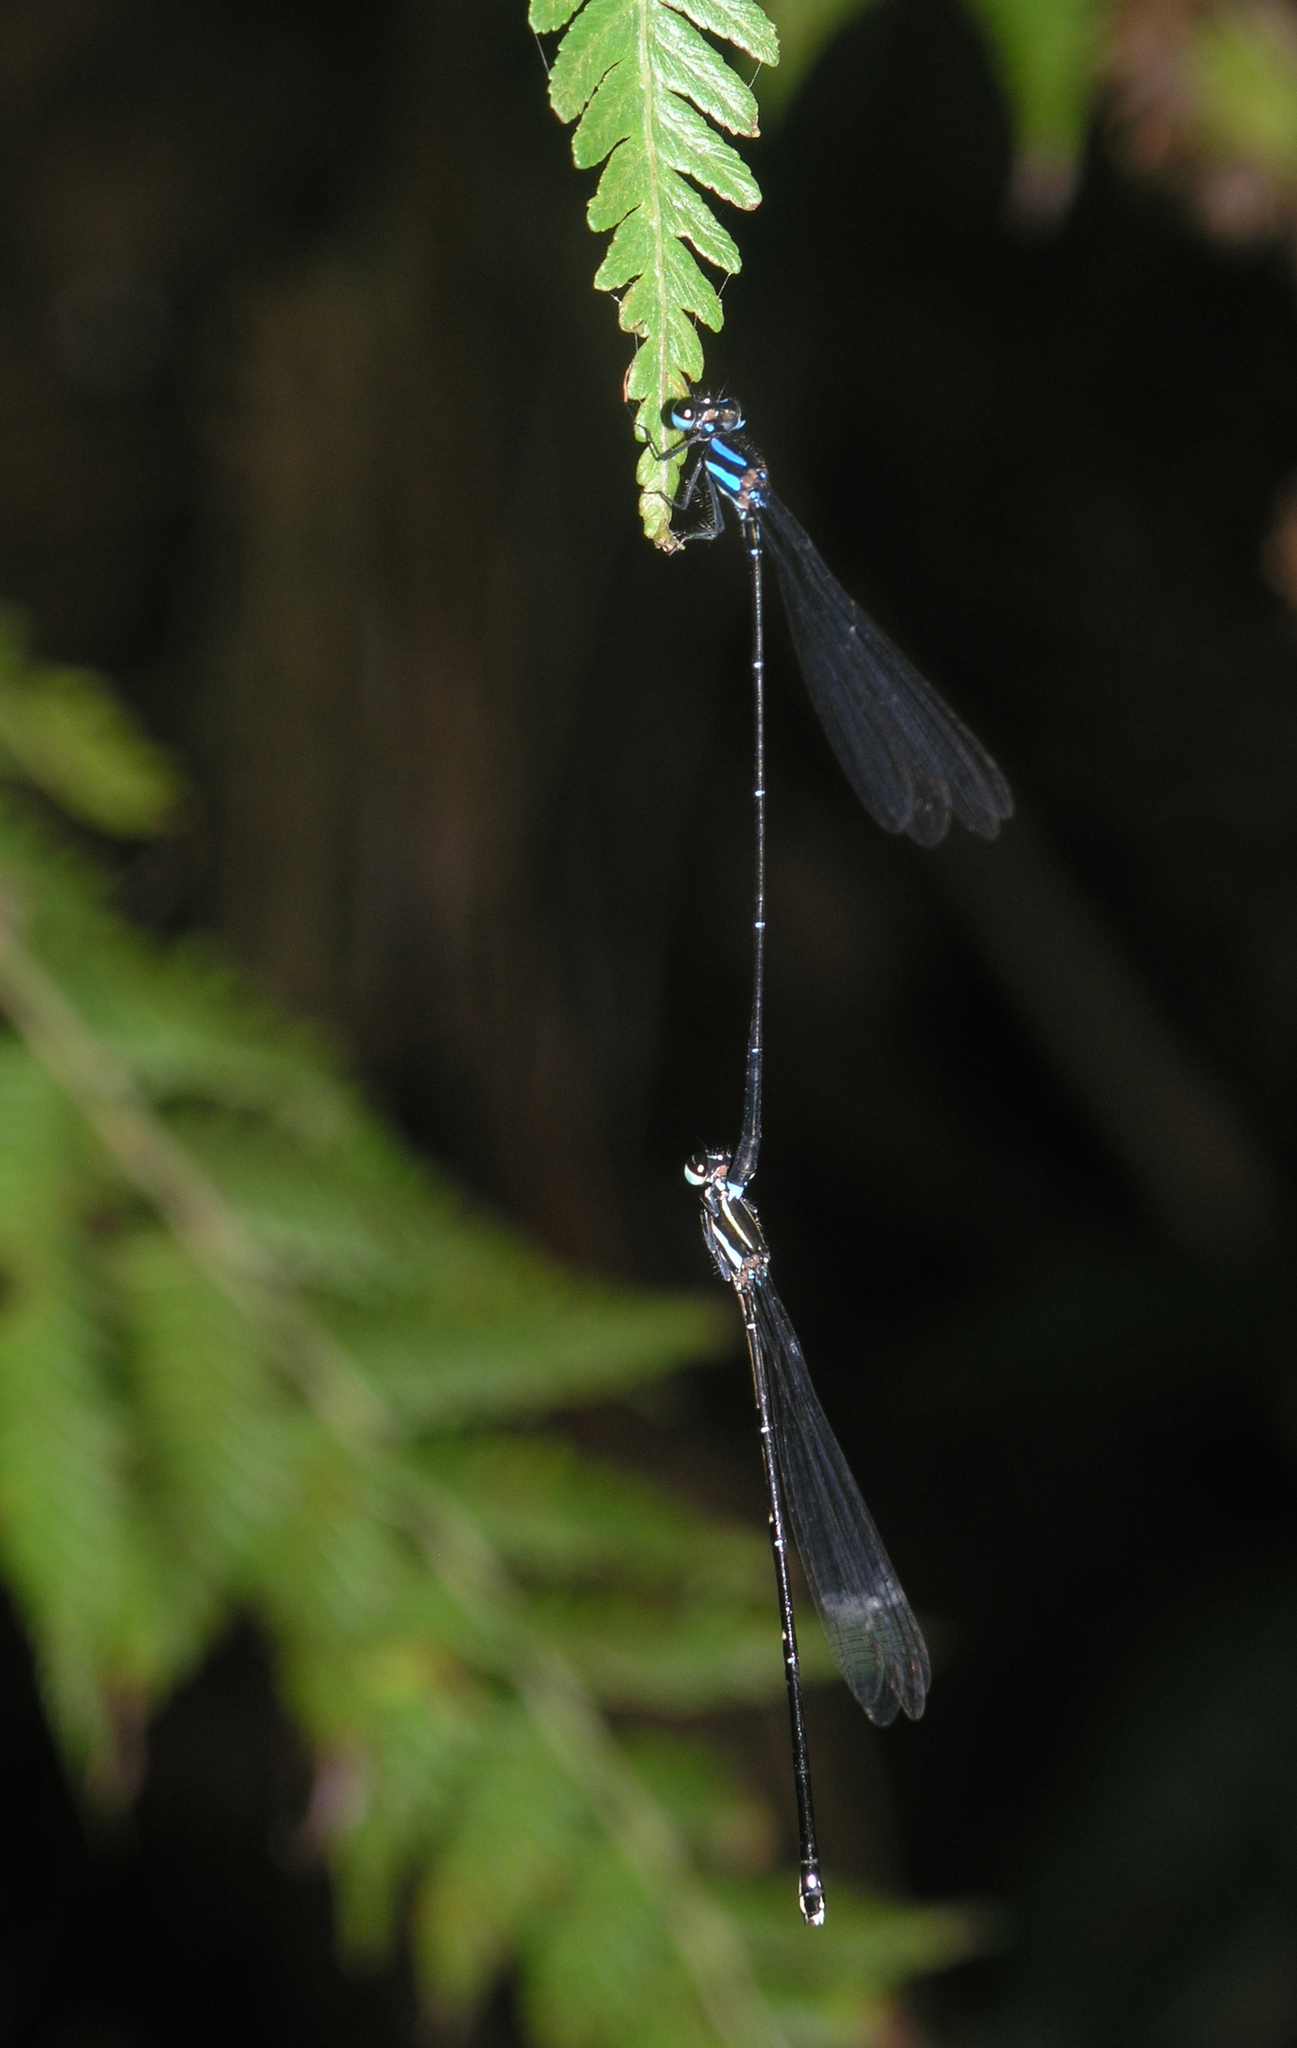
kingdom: Animalia
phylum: Arthropoda
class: Insecta
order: Odonata
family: Platycnemididae
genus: Prodasineura
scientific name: Prodasineura hoffmanni
